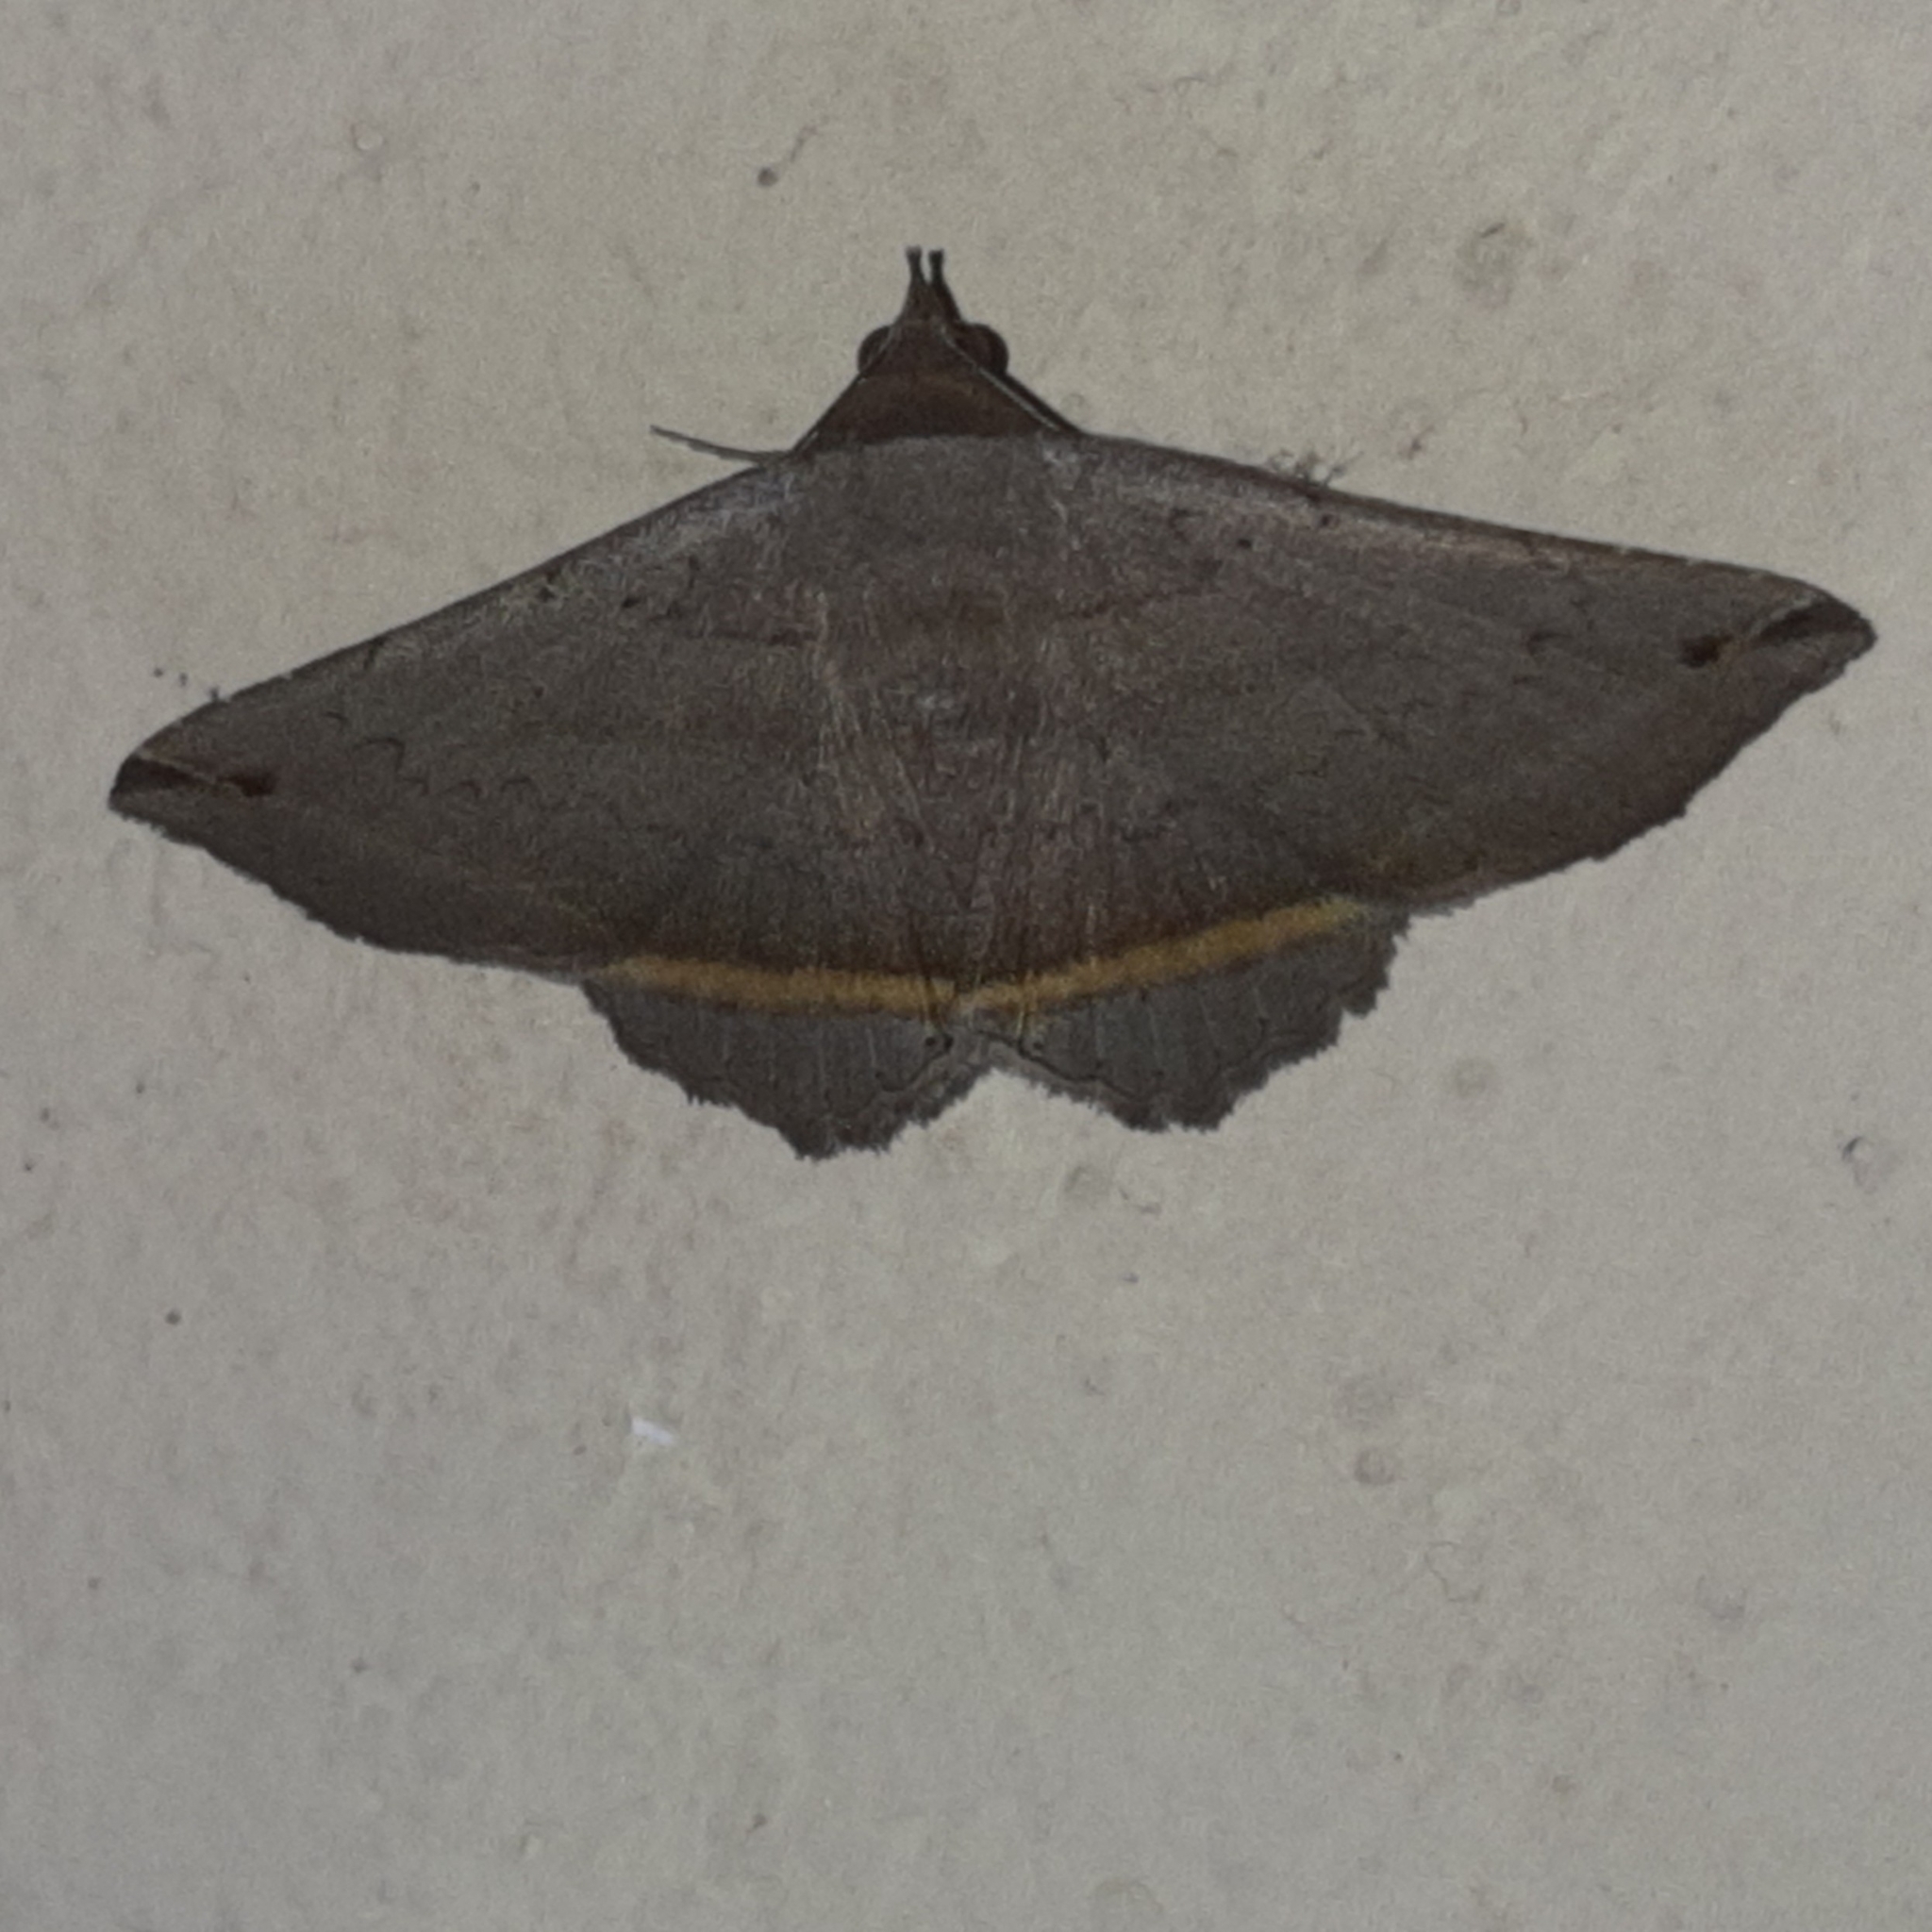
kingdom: Animalia
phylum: Arthropoda
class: Insecta
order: Lepidoptera
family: Erebidae
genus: Lesmone
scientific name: Lesmone formularis
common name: Lesmone moth
